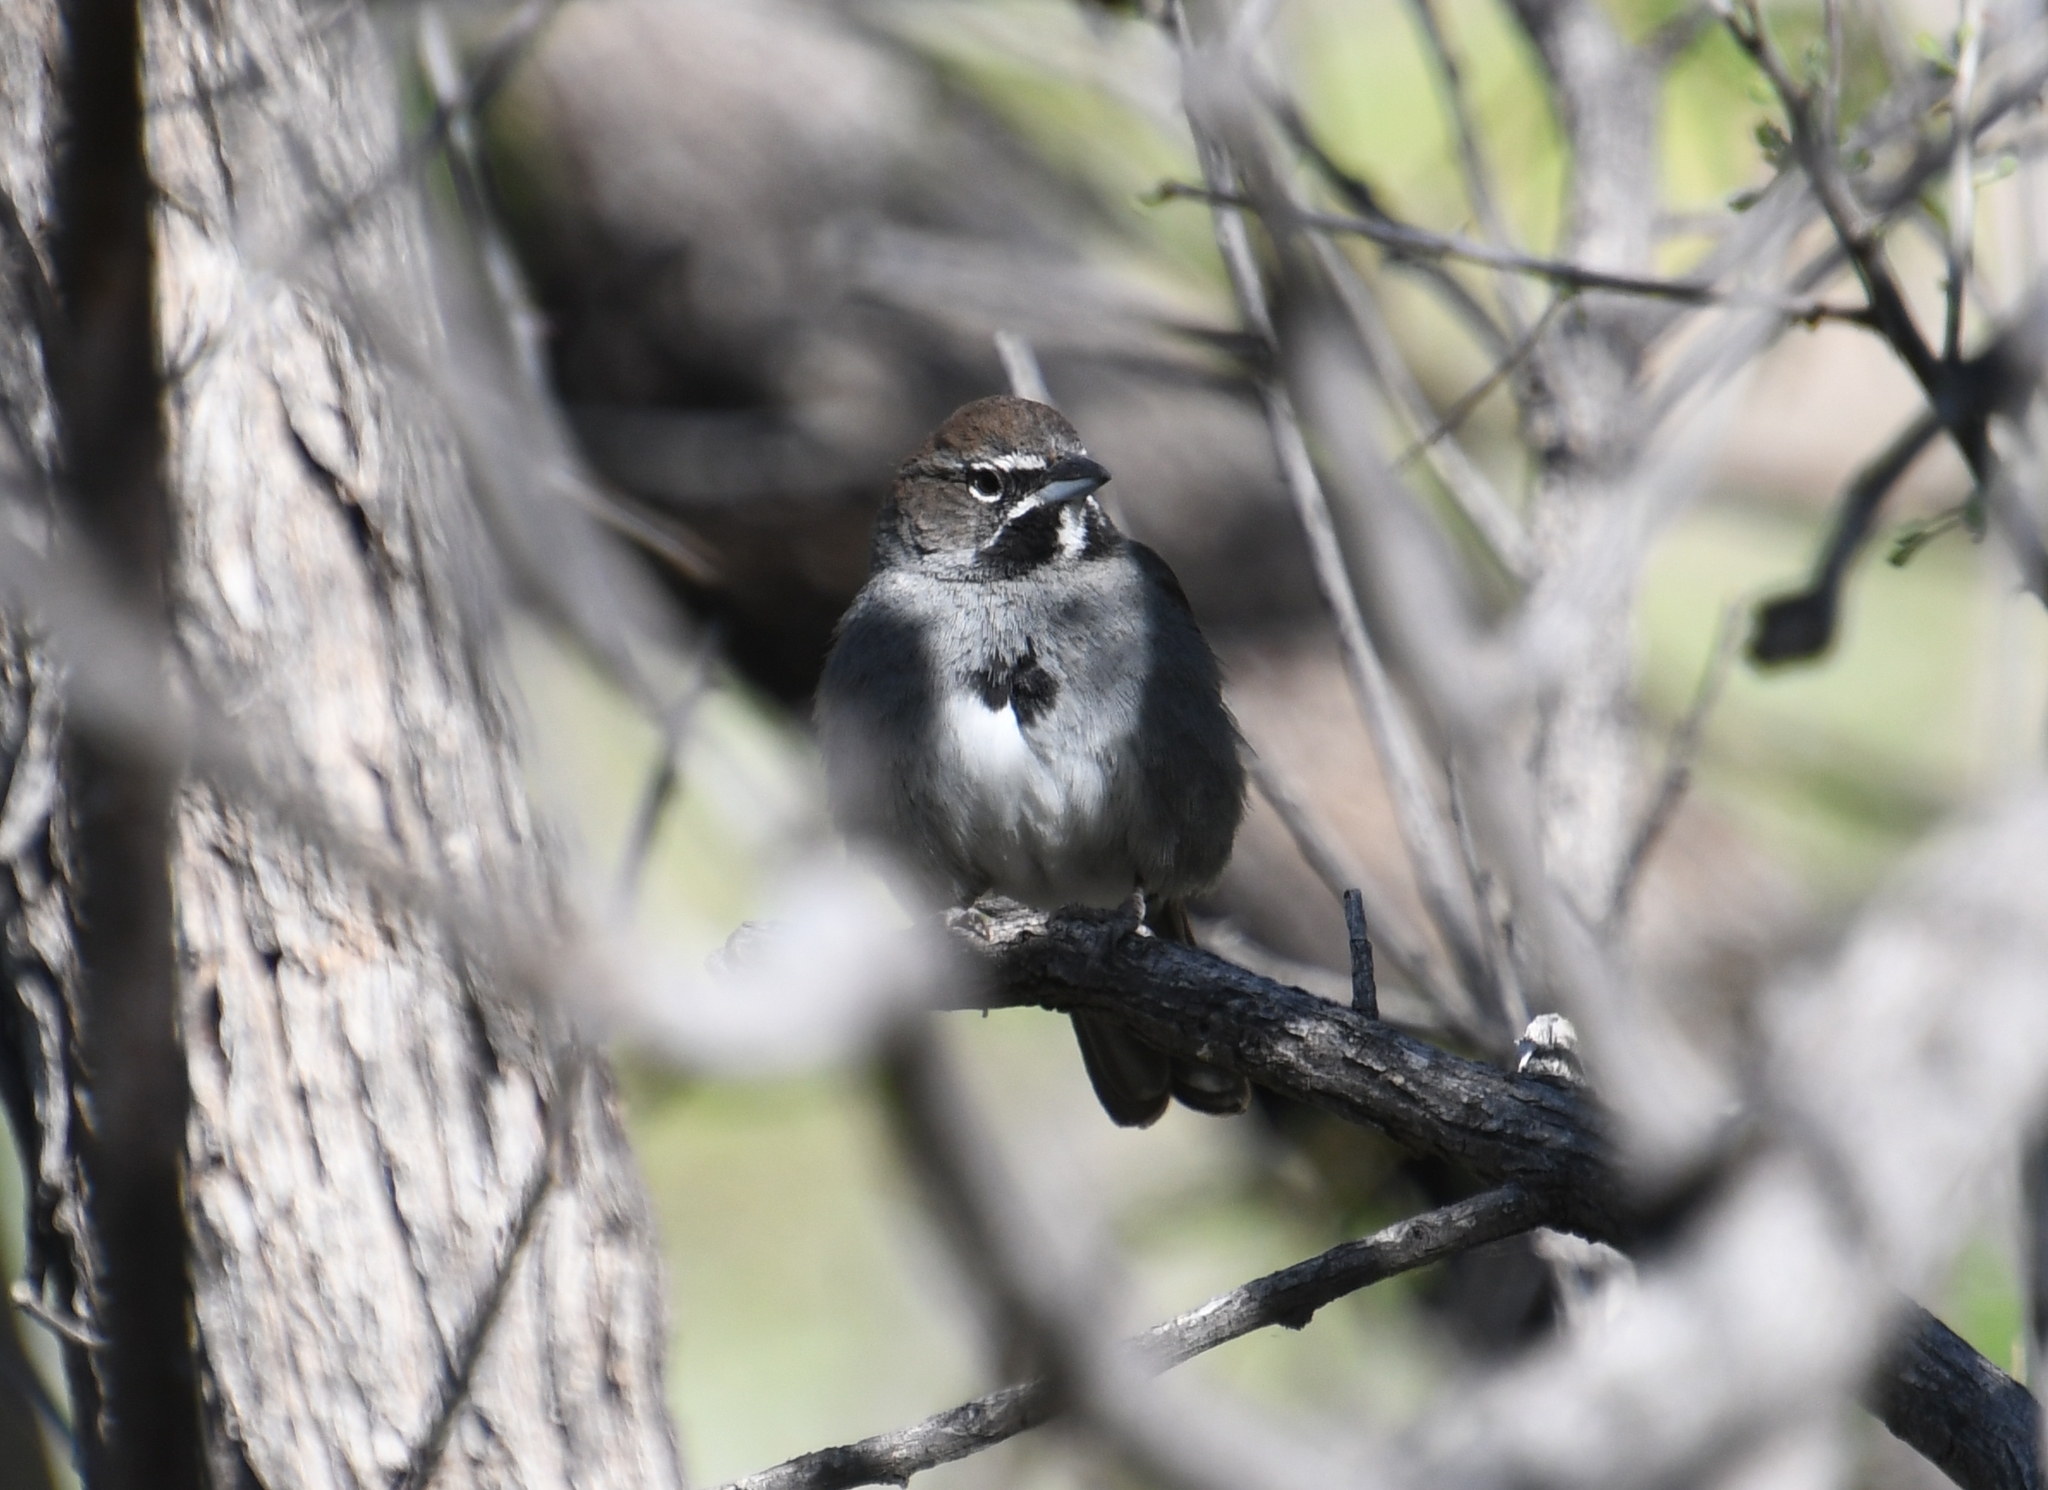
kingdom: Animalia
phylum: Chordata
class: Aves
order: Passeriformes
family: Passerellidae
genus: Amphispizopsis
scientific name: Amphispizopsis quinquestriata
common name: Five-striped sparrow
